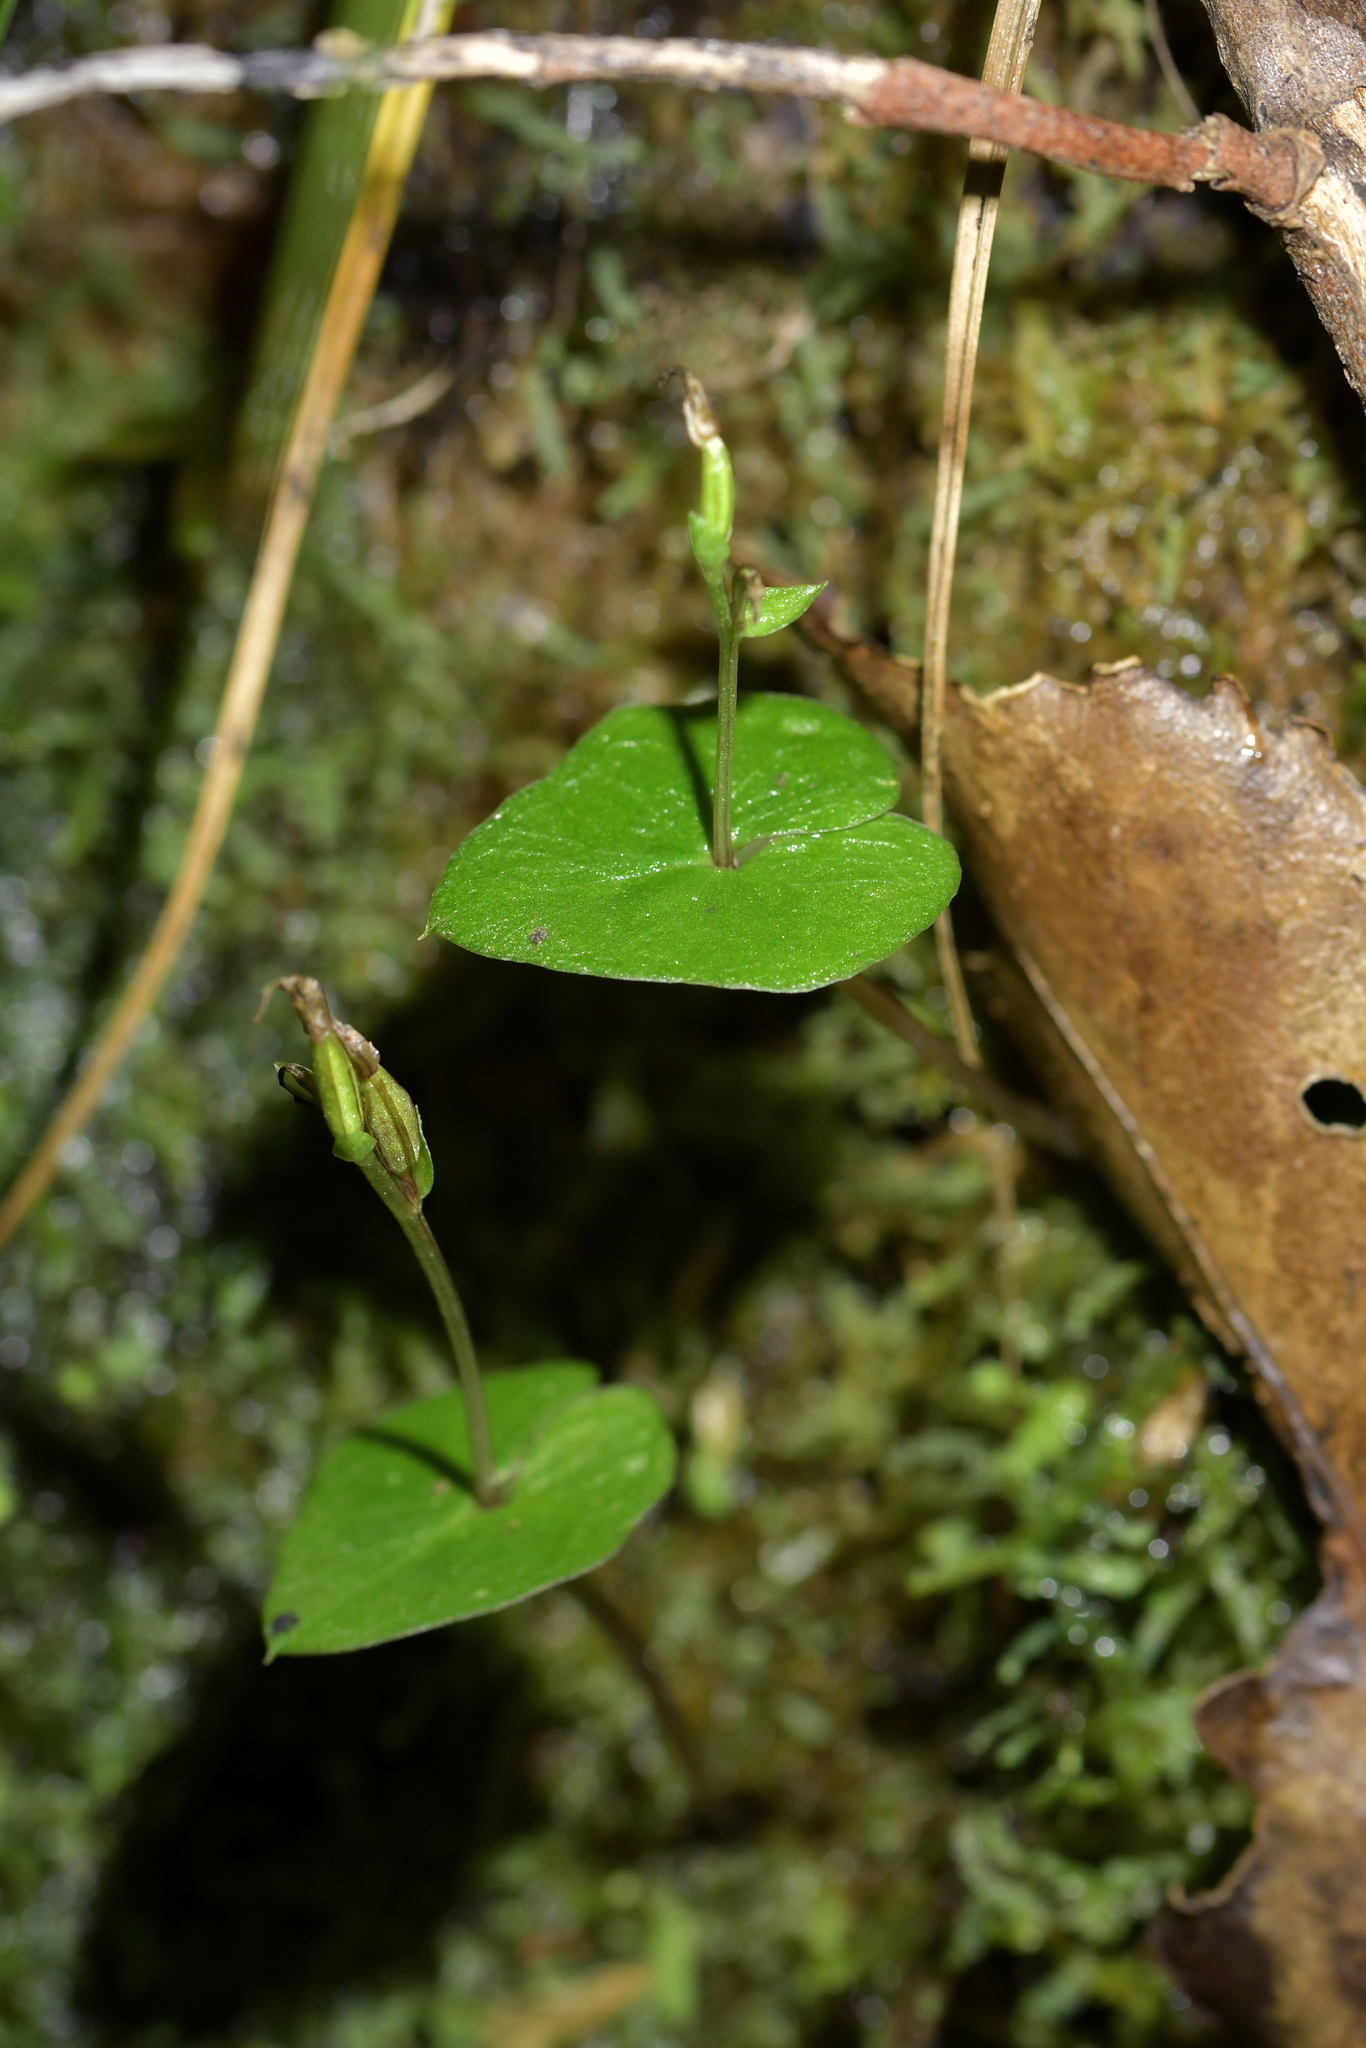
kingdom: Plantae
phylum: Tracheophyta
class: Liliopsida
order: Asparagales
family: Orchidaceae
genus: Acianthus
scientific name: Acianthus sinclairii
